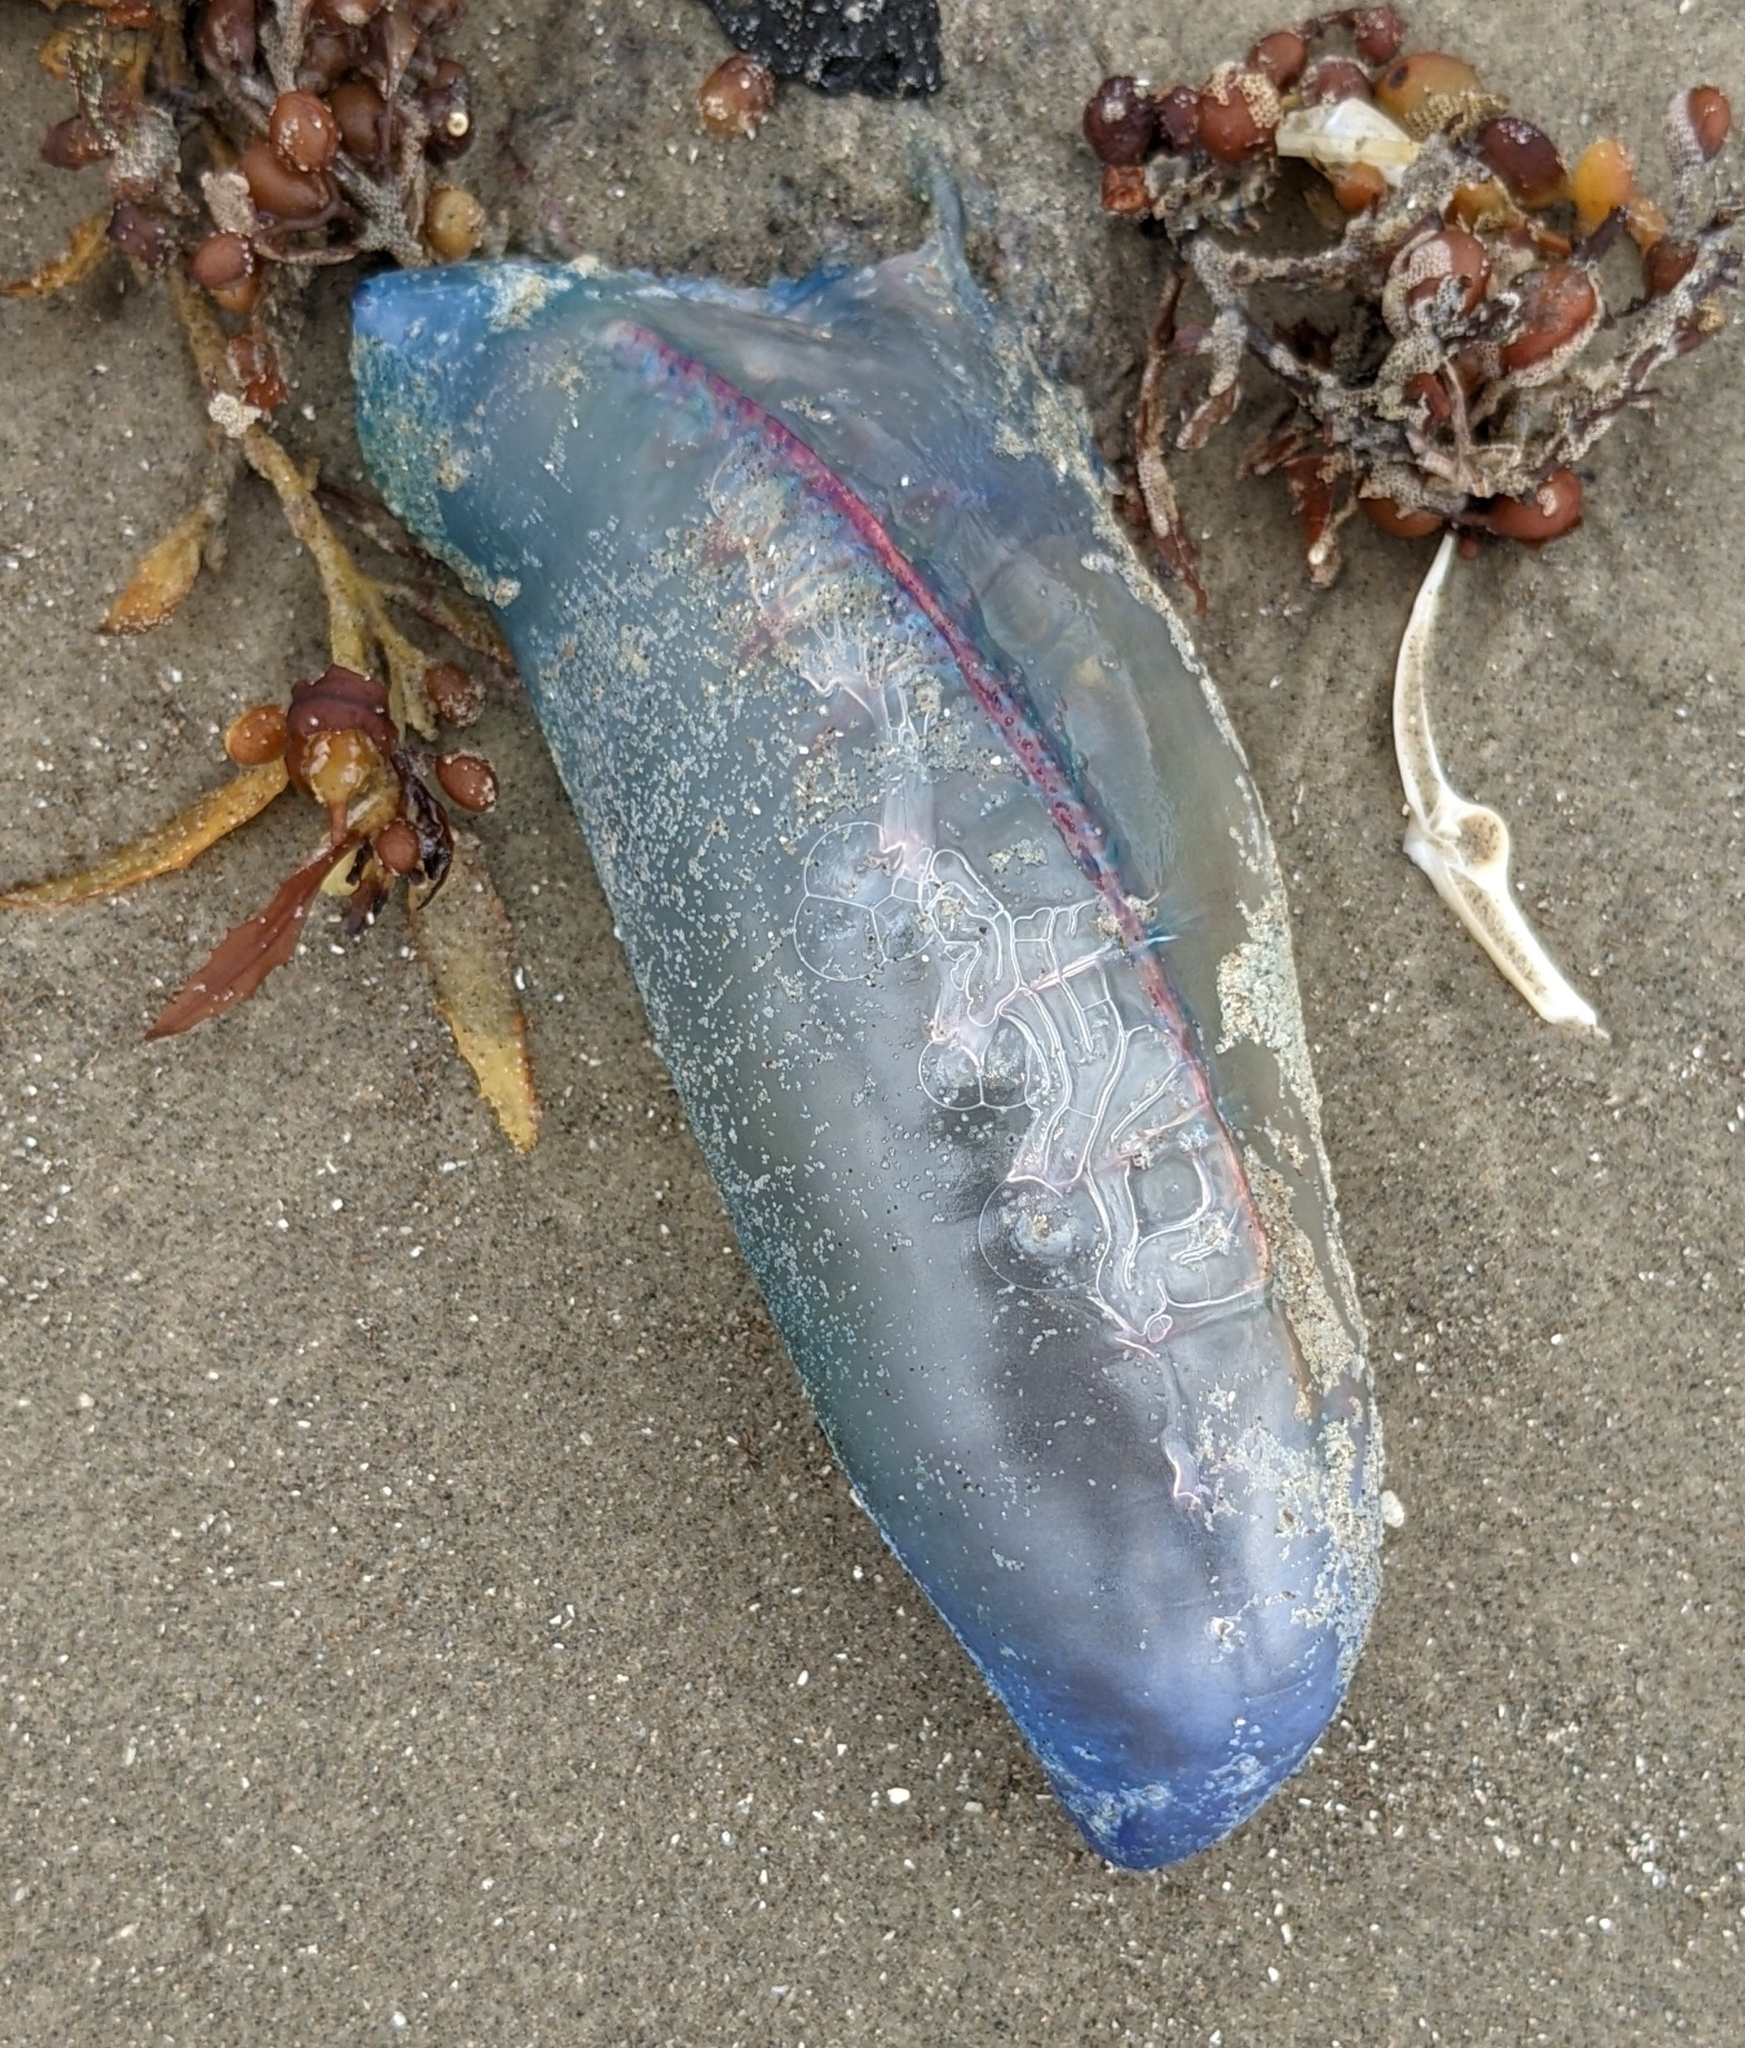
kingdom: Animalia
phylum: Cnidaria
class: Hydrozoa
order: Siphonophorae
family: Physaliidae
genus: Physalia
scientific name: Physalia physalis
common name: Portuguese man-of-war
